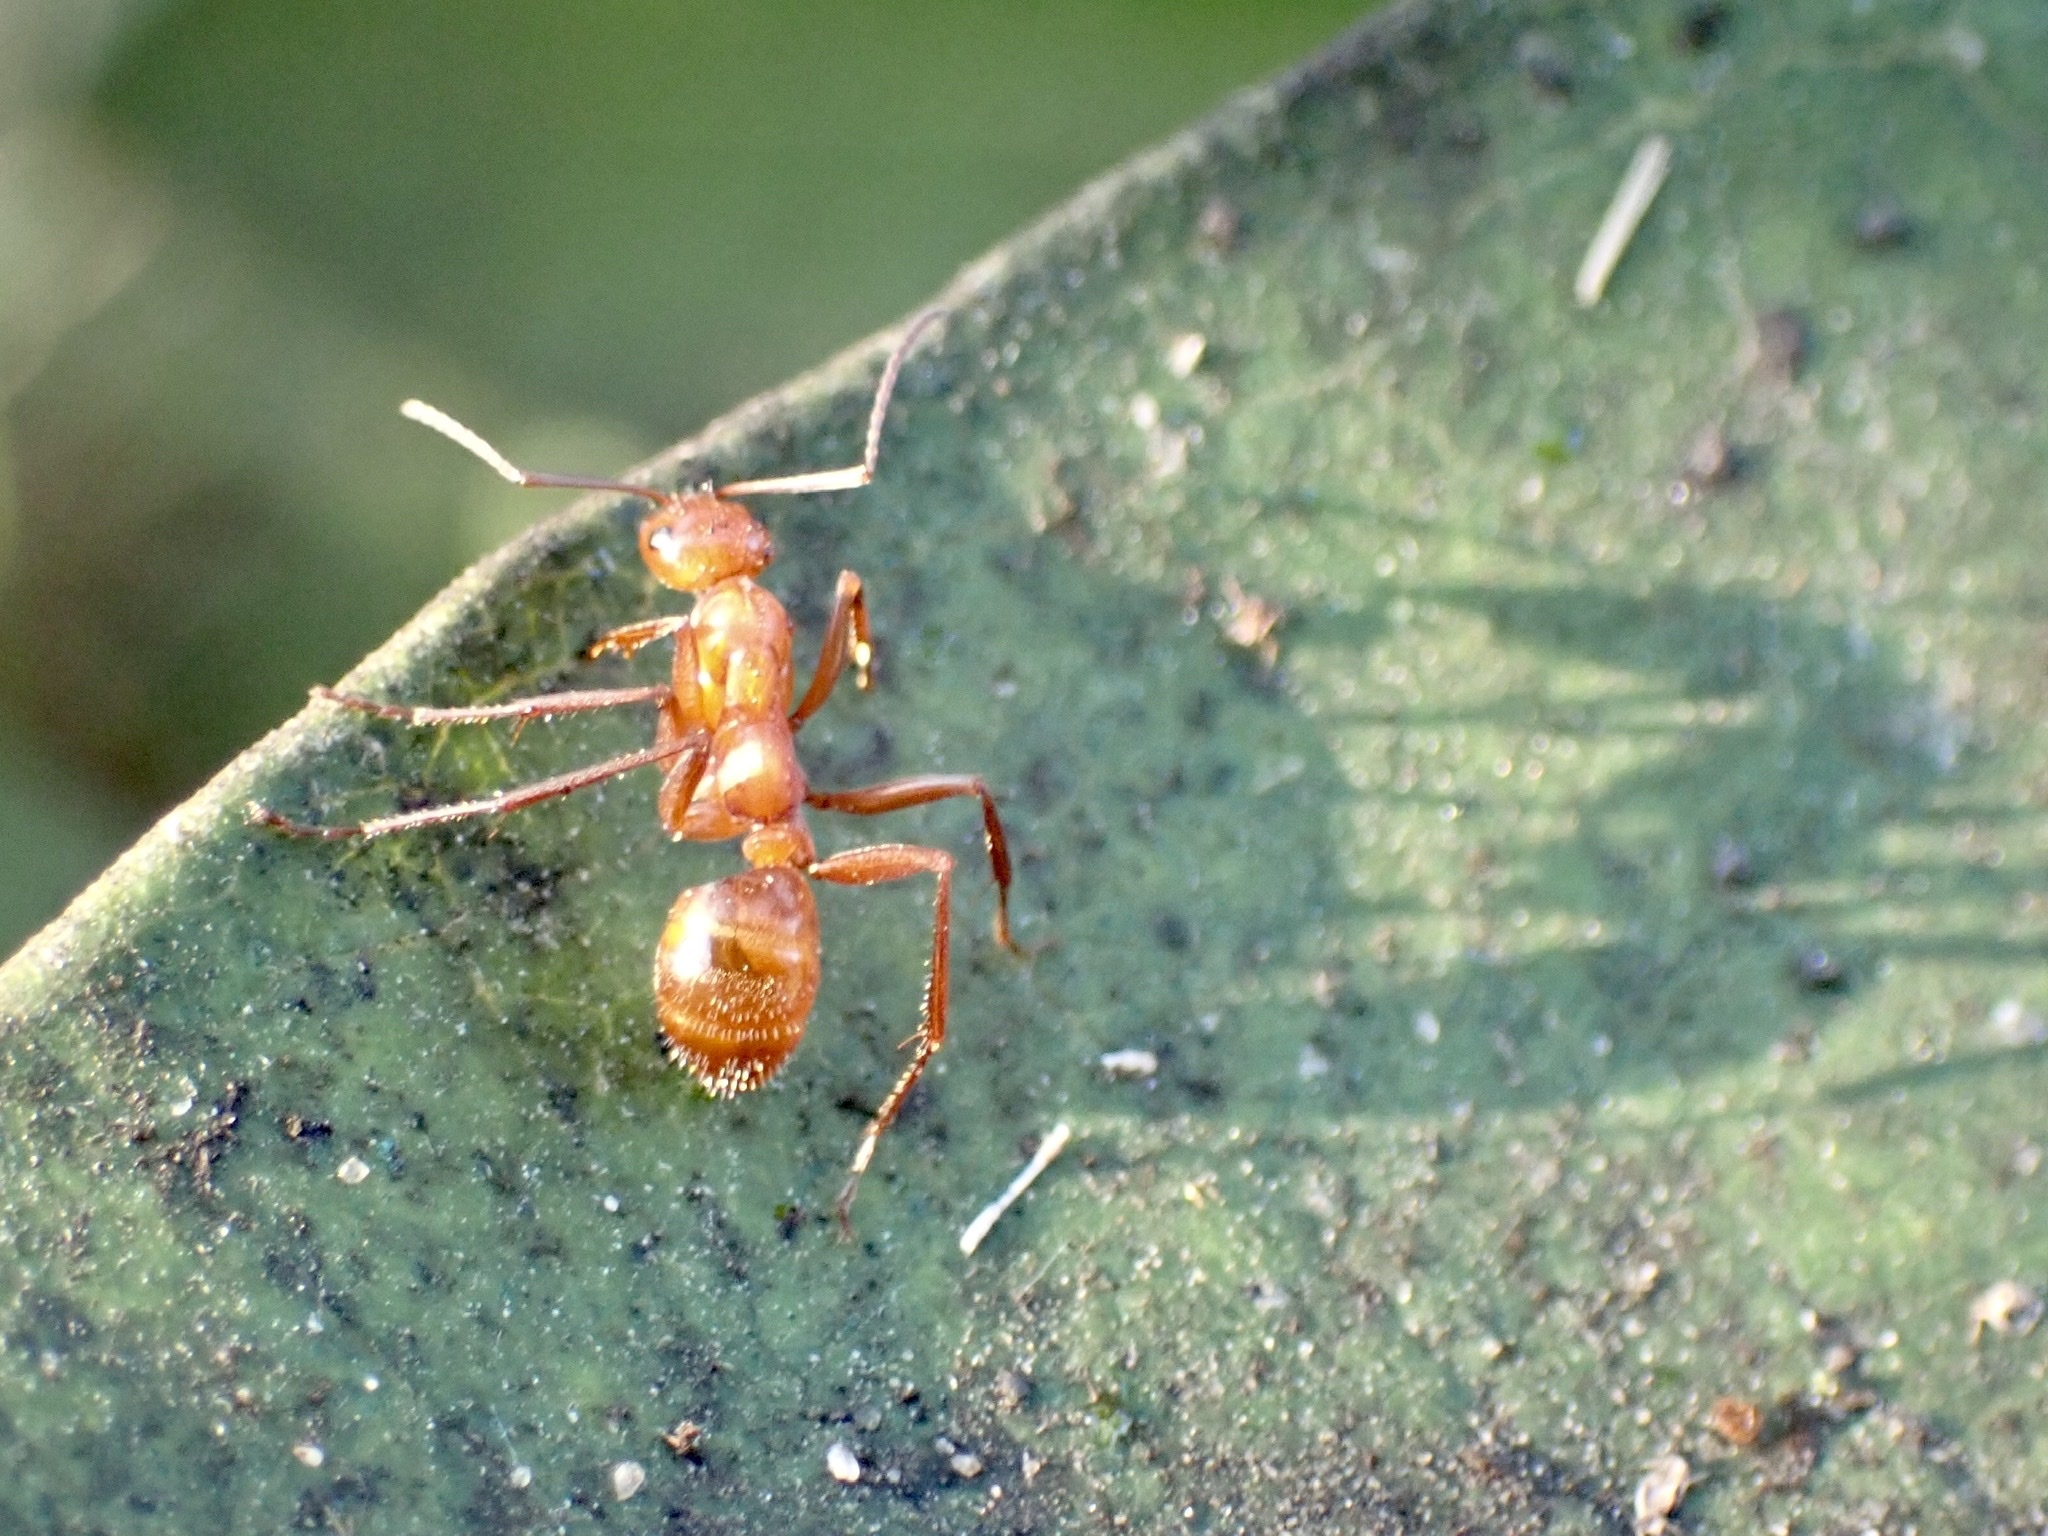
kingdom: Animalia
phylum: Arthropoda
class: Insecta
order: Hymenoptera
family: Formicidae
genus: Formica
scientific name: Formica
